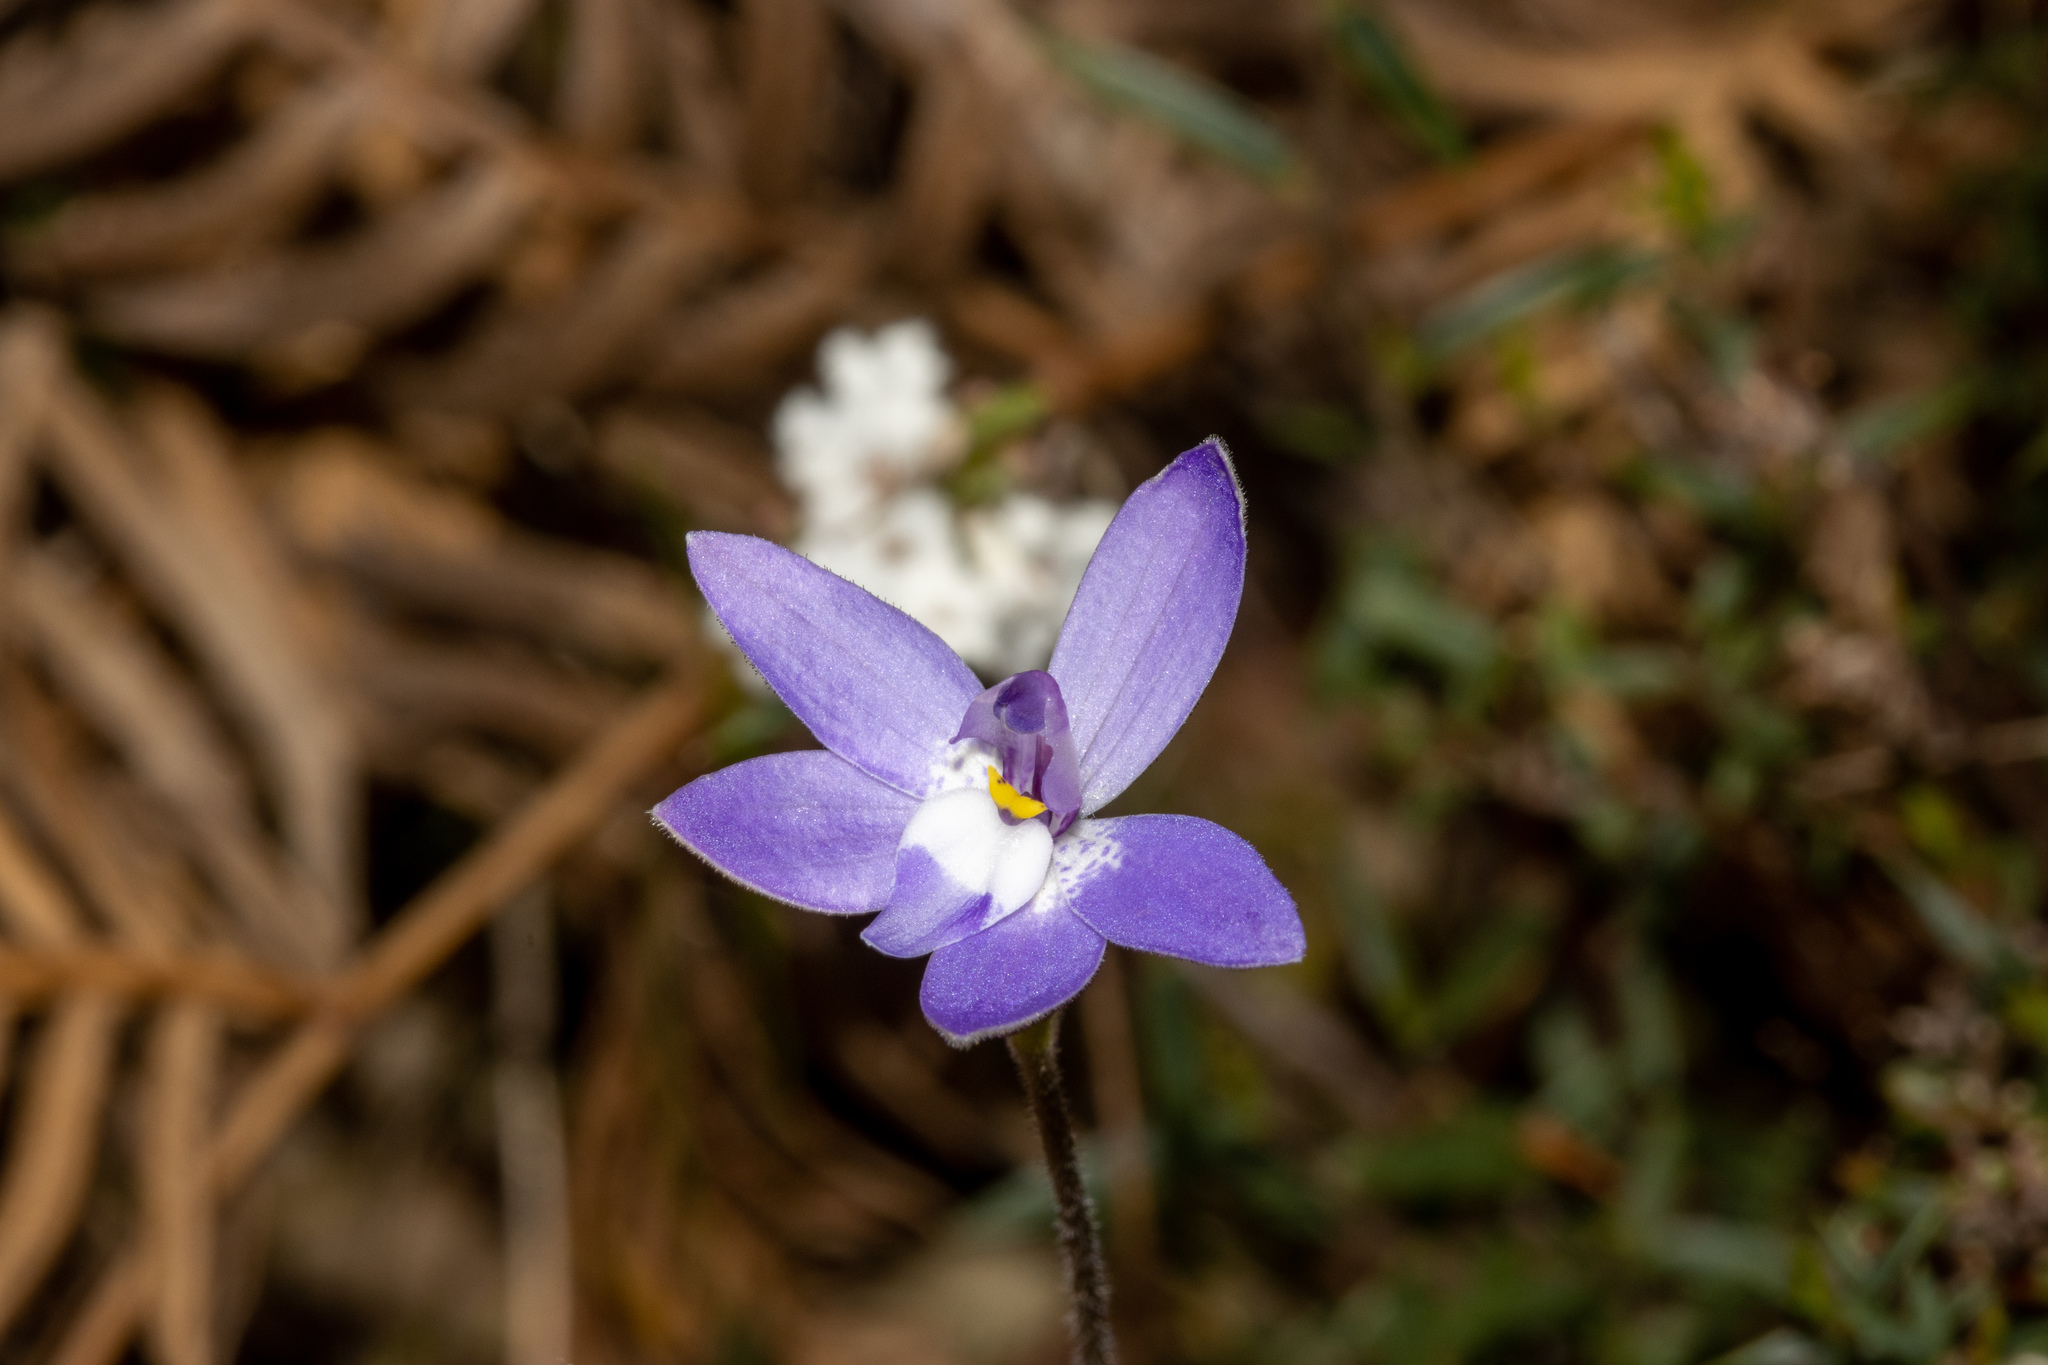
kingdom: Plantae
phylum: Tracheophyta
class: Liliopsida
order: Asparagales
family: Orchidaceae
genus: Caladenia
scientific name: Caladenia major
